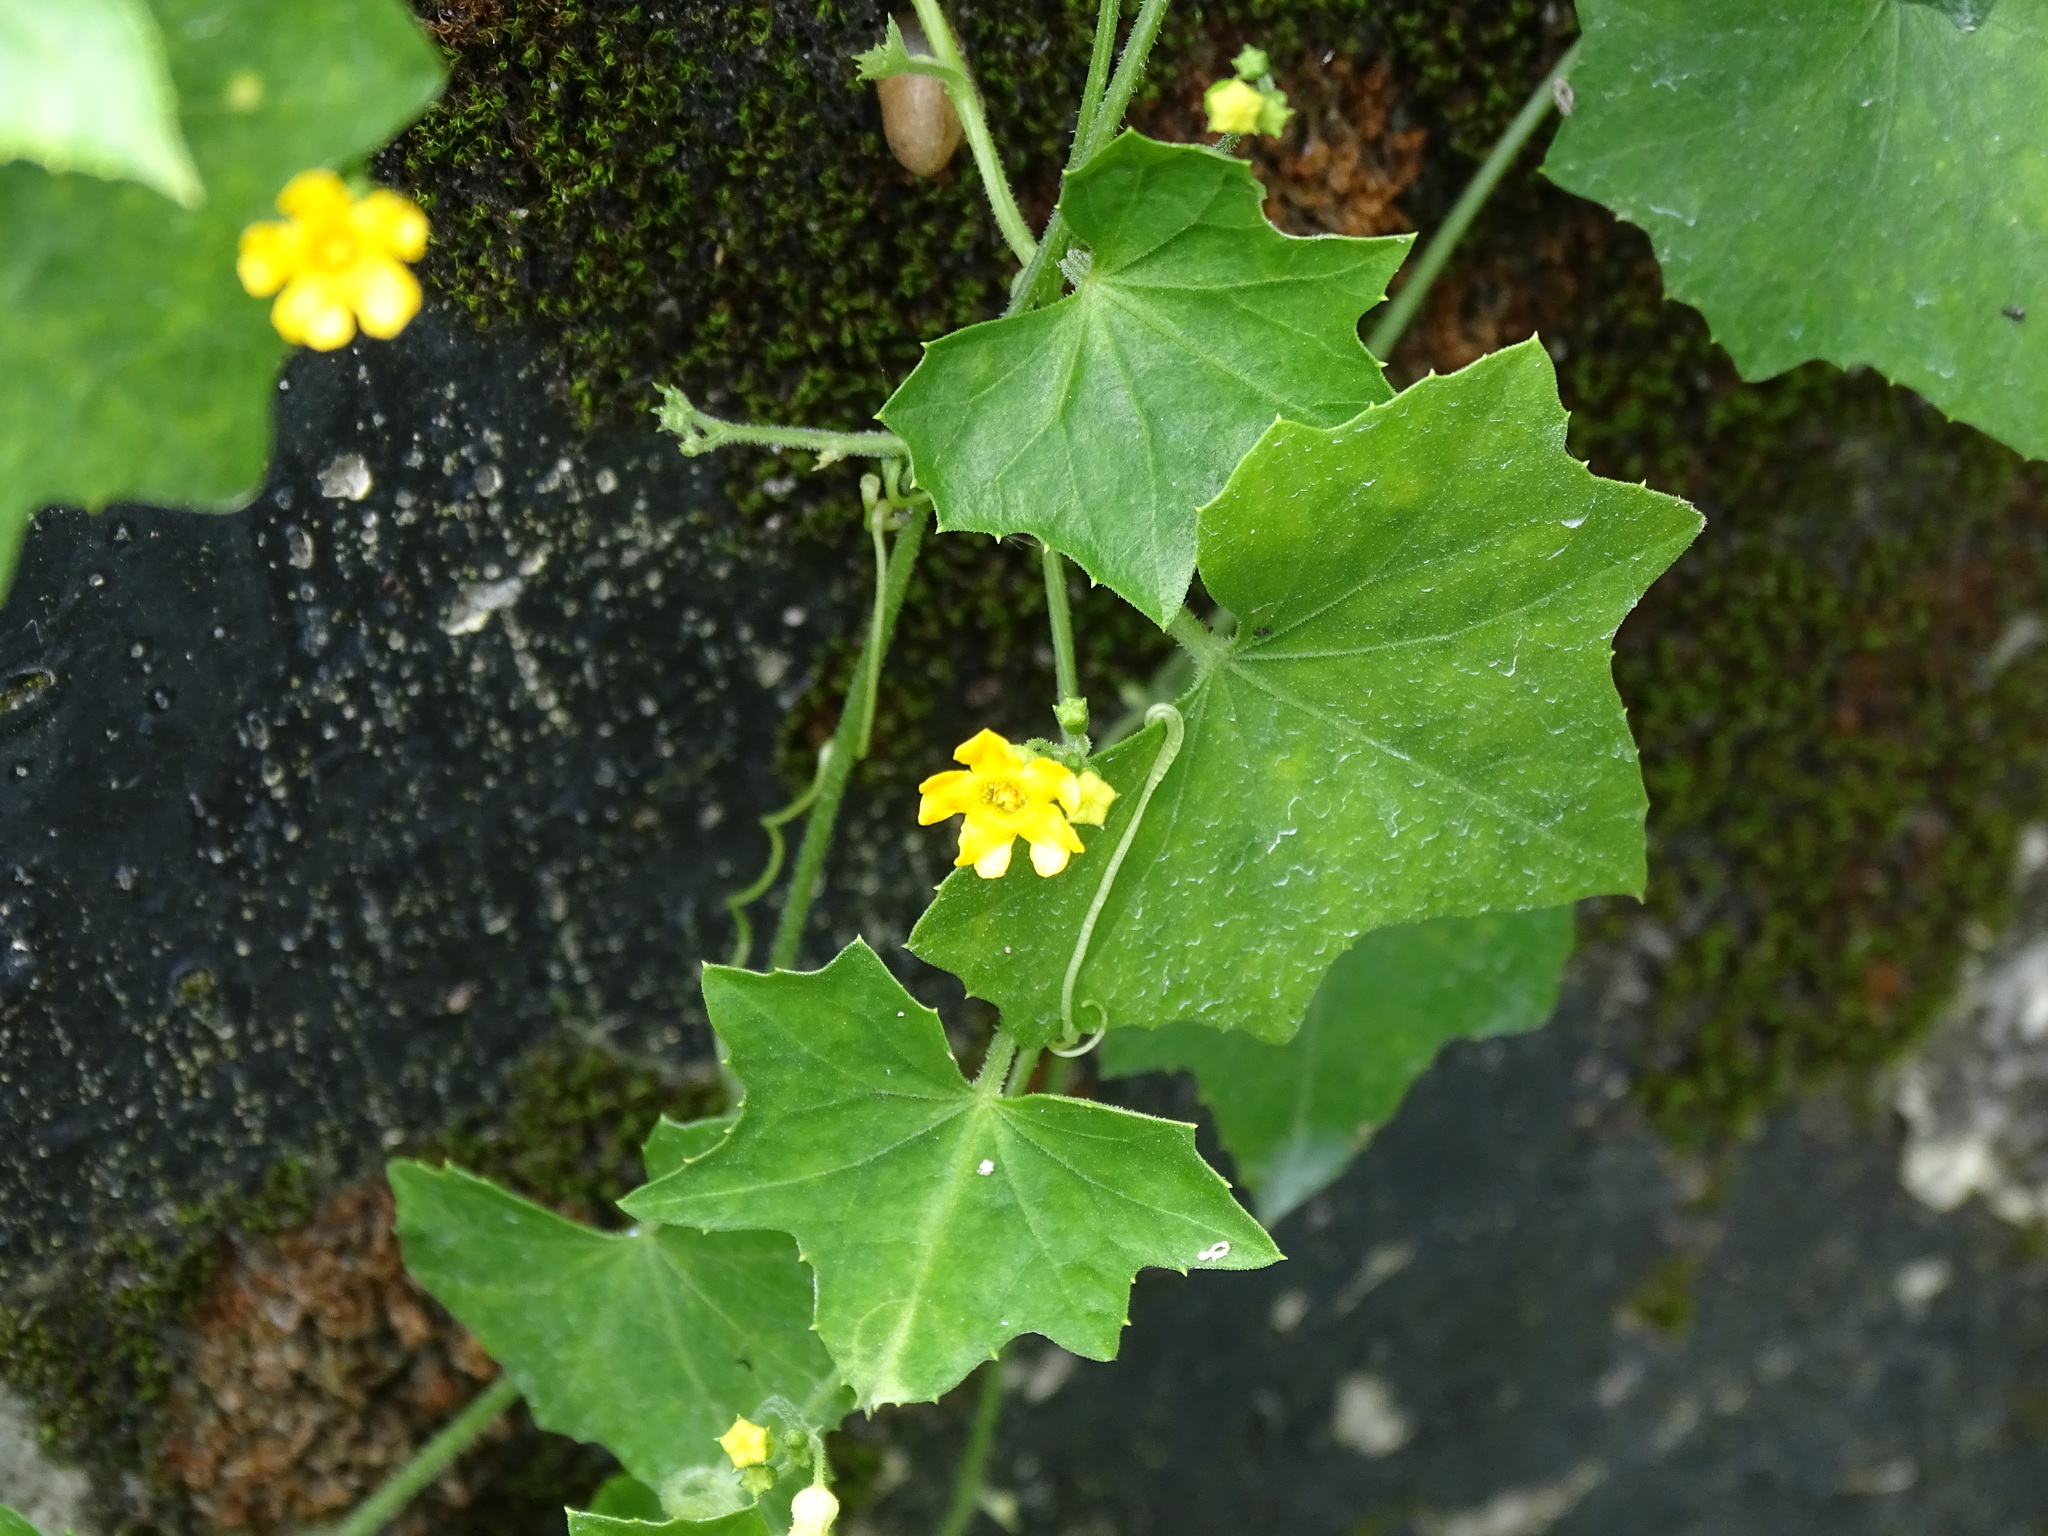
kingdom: Plantae
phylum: Tracheophyta
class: Magnoliopsida
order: Cucurbitales
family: Cucurbitaceae
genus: Melothria
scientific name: Melothria pendula
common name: Creeping-cucumber
